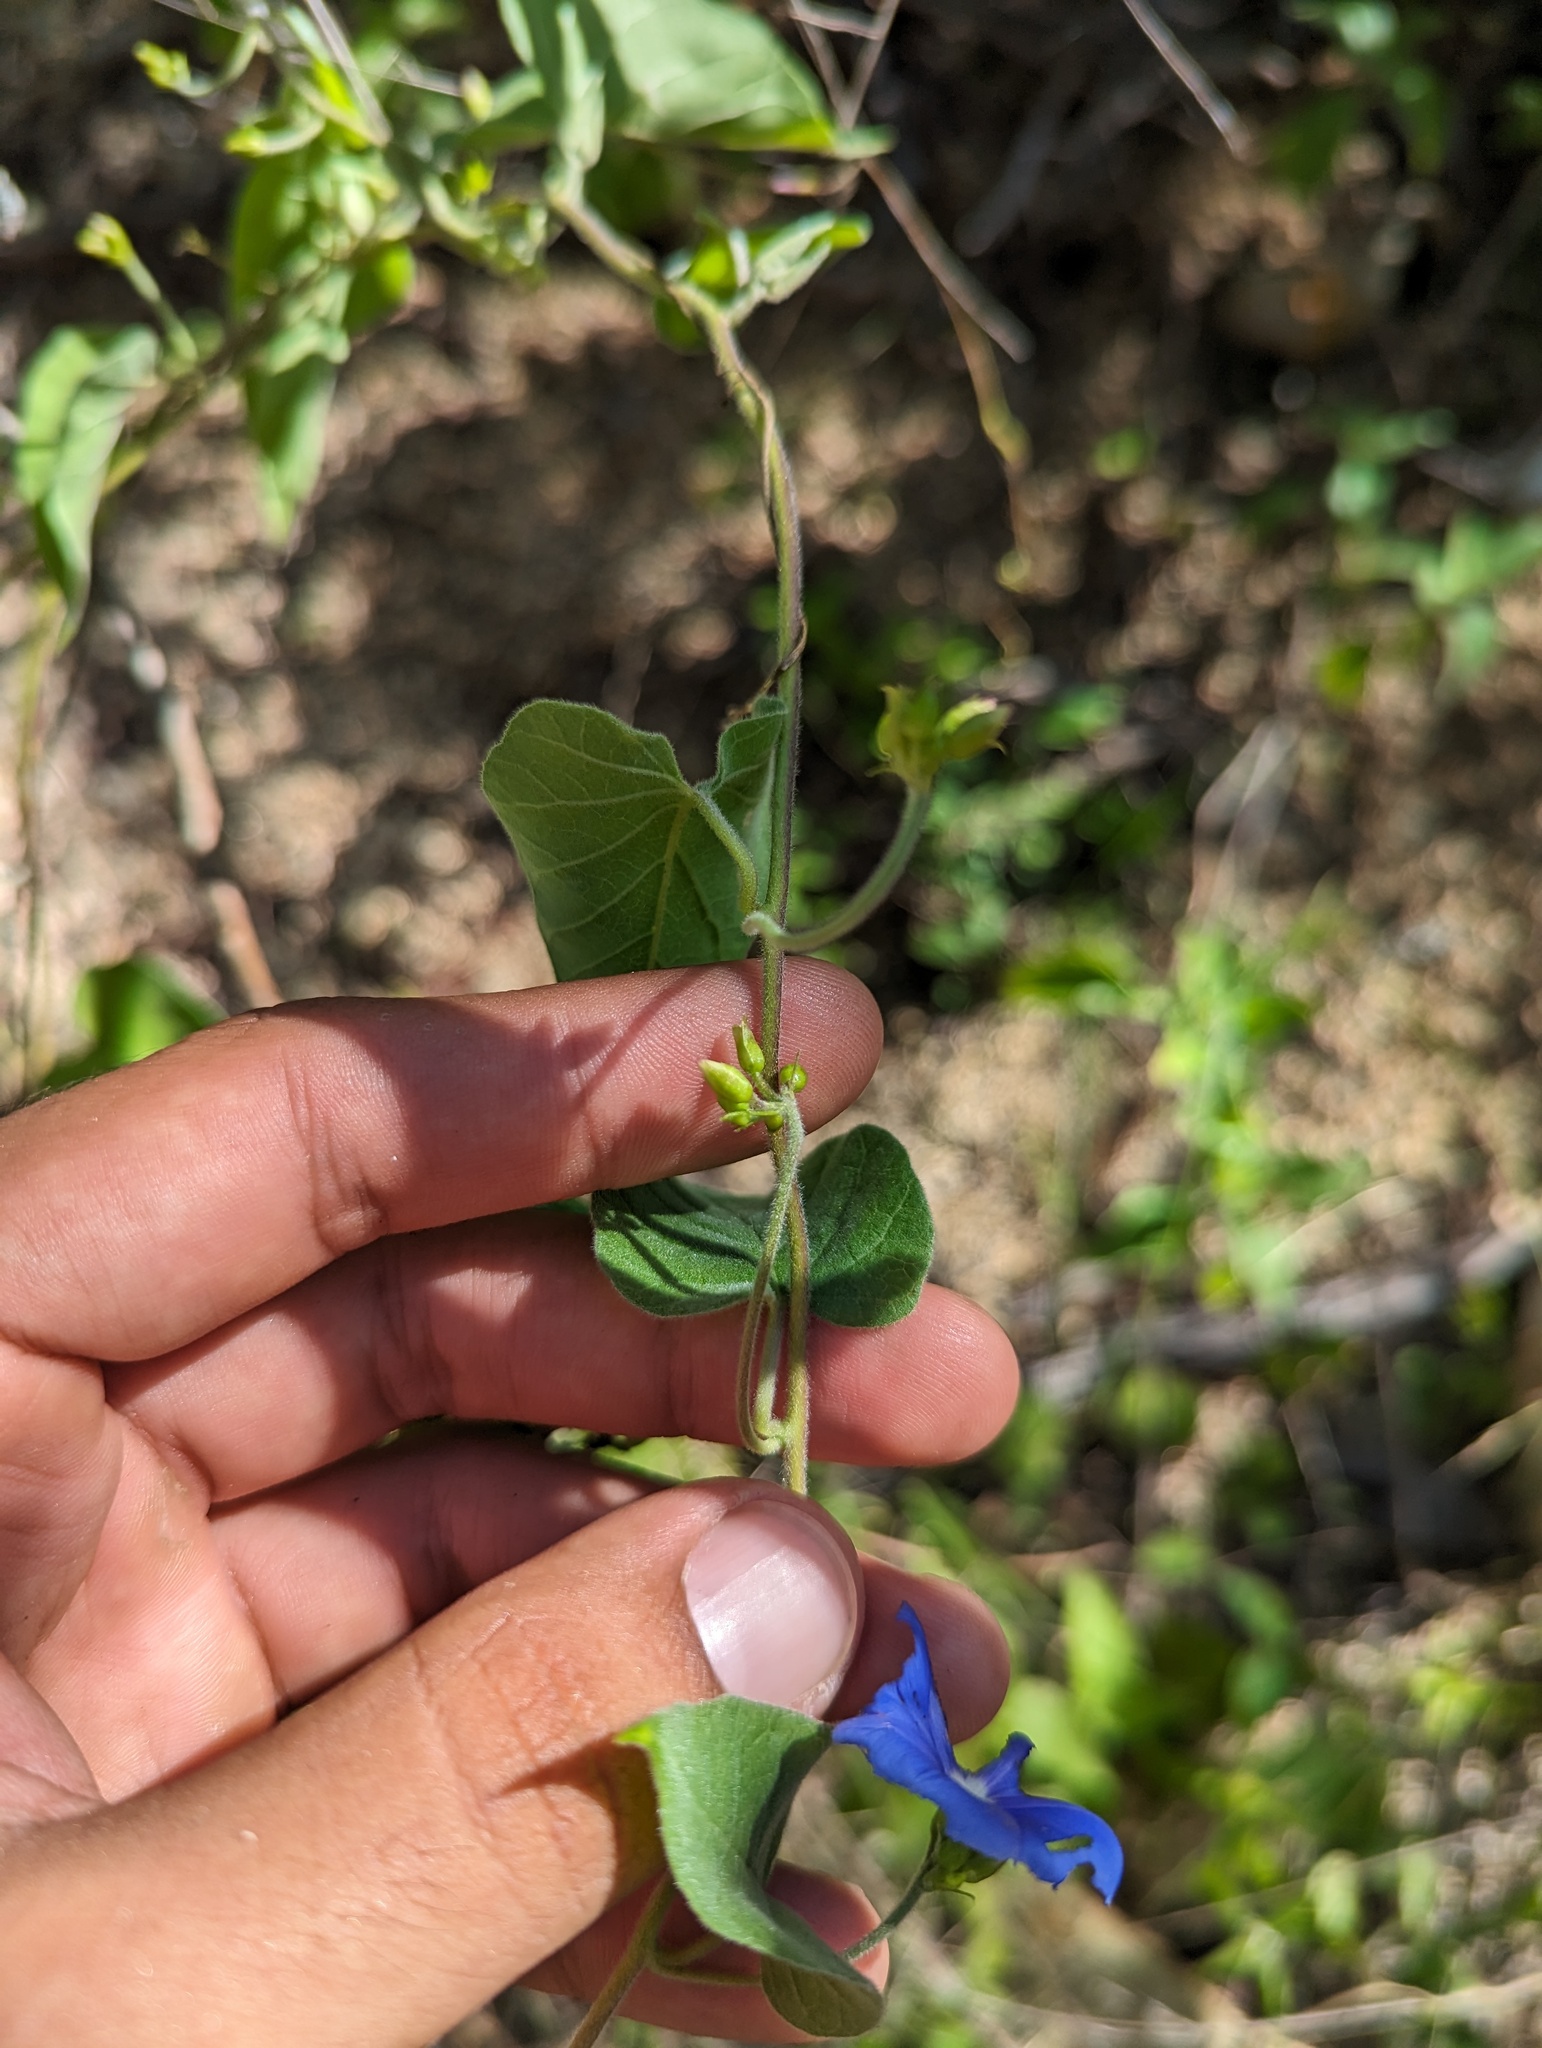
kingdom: Plantae
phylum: Tracheophyta
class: Magnoliopsida
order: Solanales
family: Convolvulaceae
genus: Jacquemontia
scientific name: Jacquemontia pentanthos
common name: Skyblue clustervine
